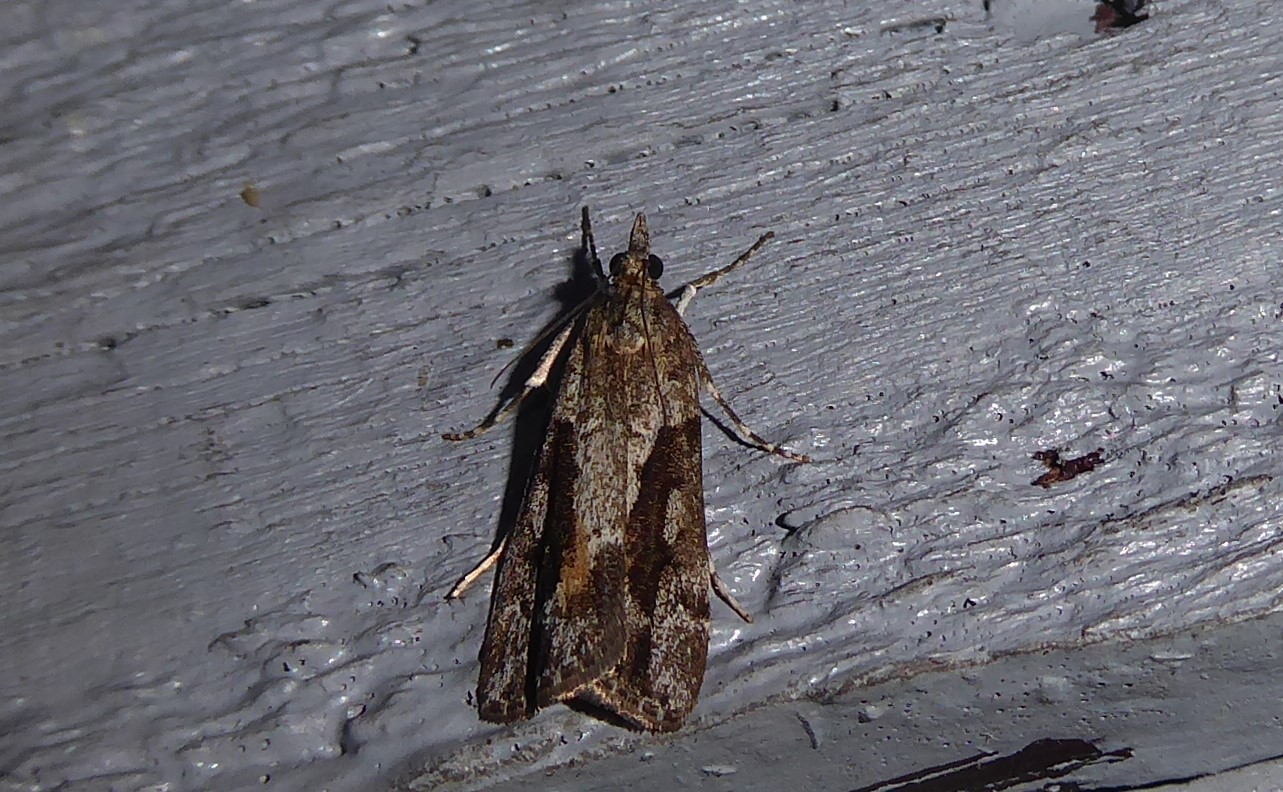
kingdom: Animalia
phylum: Arthropoda
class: Insecta
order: Lepidoptera
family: Crambidae
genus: Eudonia
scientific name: Eudonia submarginalis
